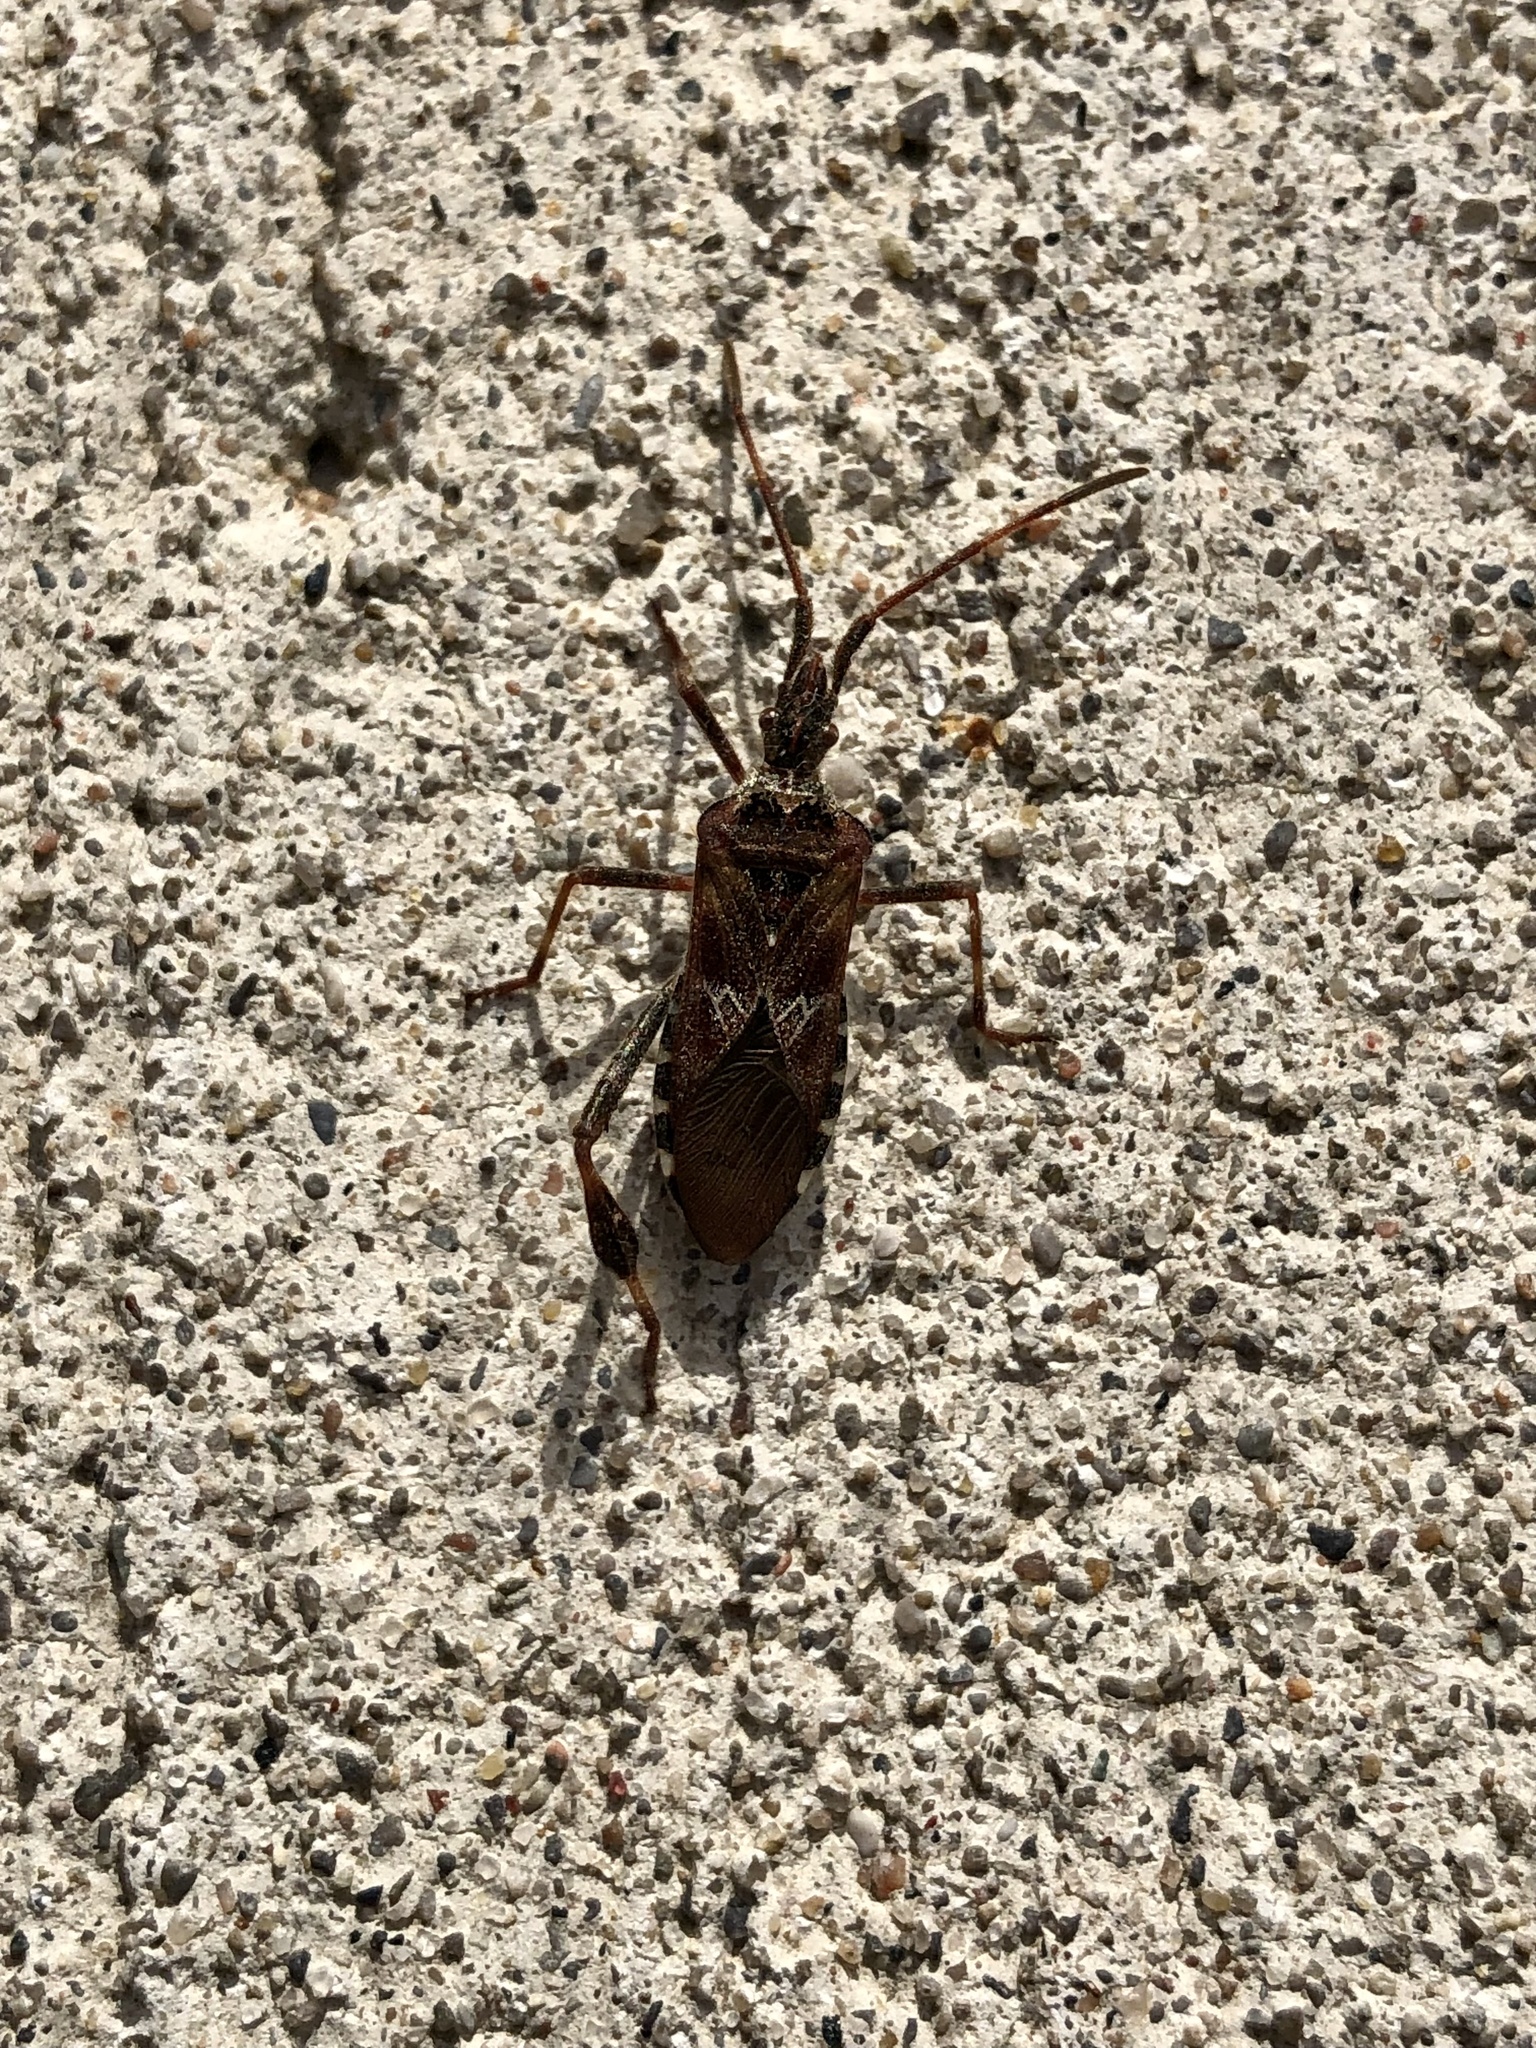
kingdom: Animalia
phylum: Arthropoda
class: Insecta
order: Hemiptera
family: Coreidae
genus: Leptoglossus
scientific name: Leptoglossus occidentalis
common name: Western conifer-seed bug
